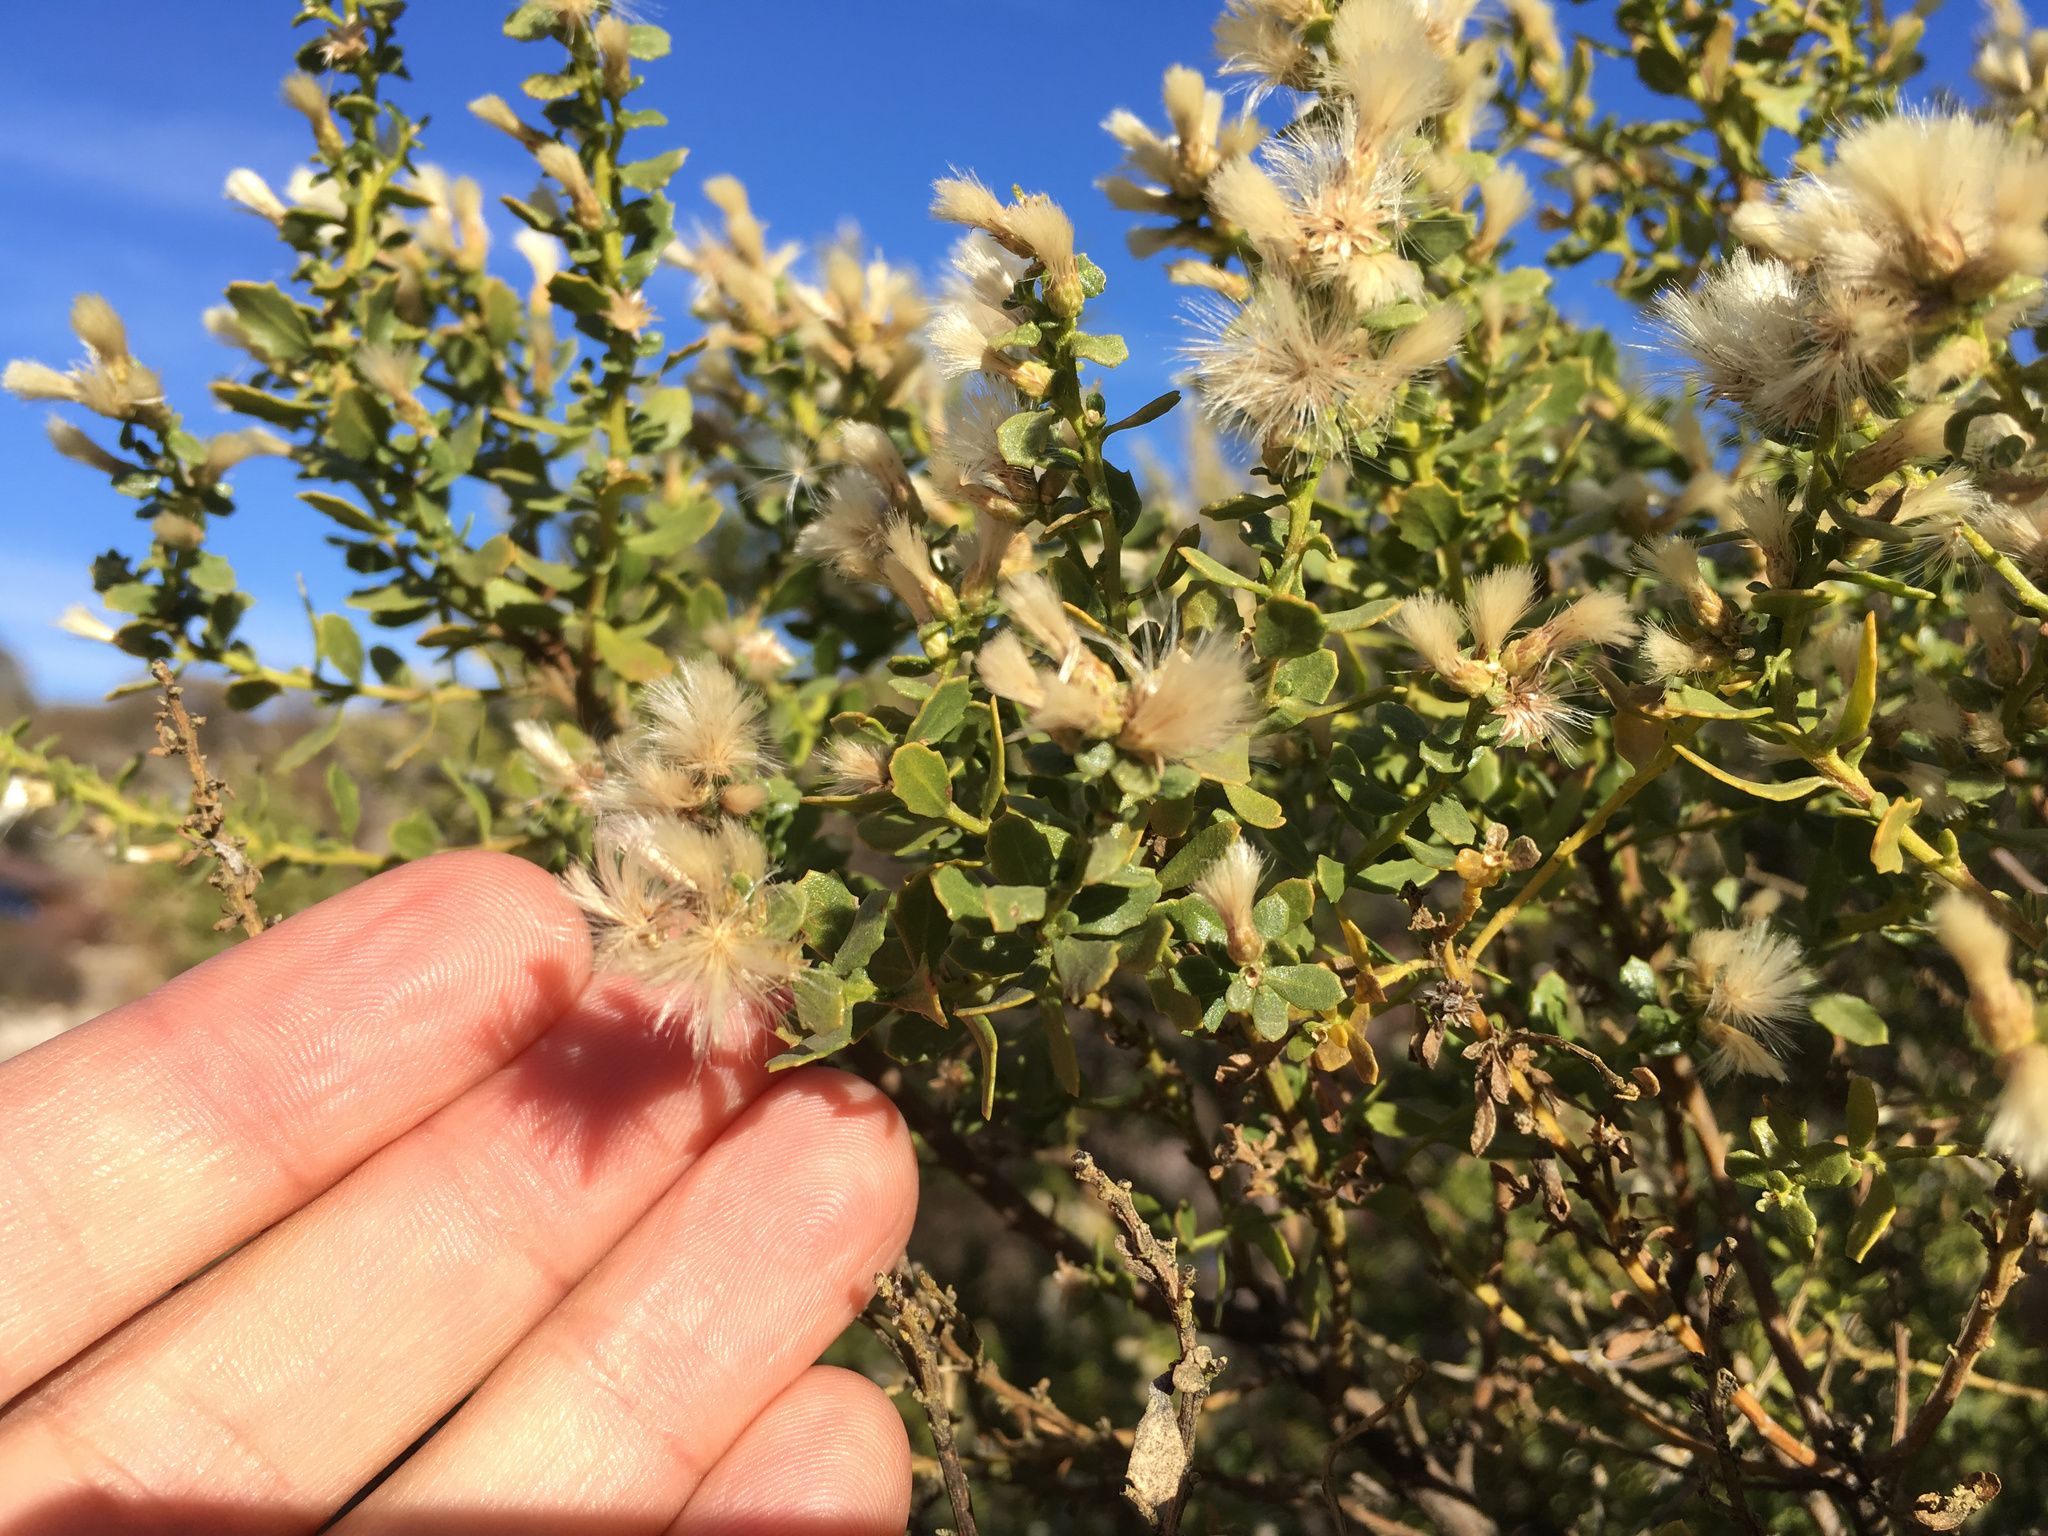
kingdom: Plantae
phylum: Tracheophyta
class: Magnoliopsida
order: Asterales
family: Asteraceae
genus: Baccharis
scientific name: Baccharis pilularis
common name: Coyotebrush
